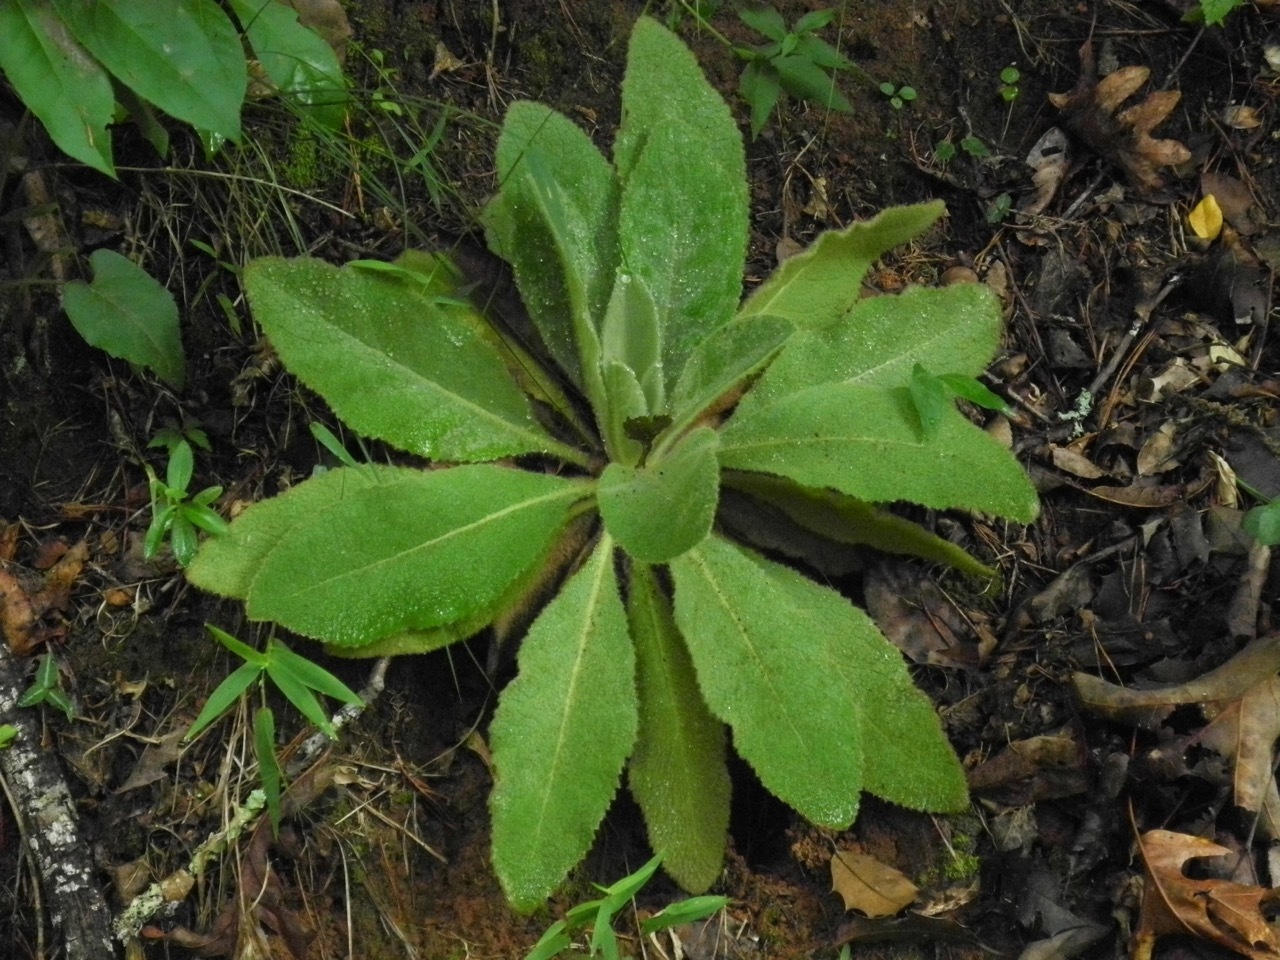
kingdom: Plantae
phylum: Tracheophyta
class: Magnoliopsida
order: Lamiales
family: Scrophulariaceae
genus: Verbascum
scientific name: Verbascum thapsus
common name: Common mullein
